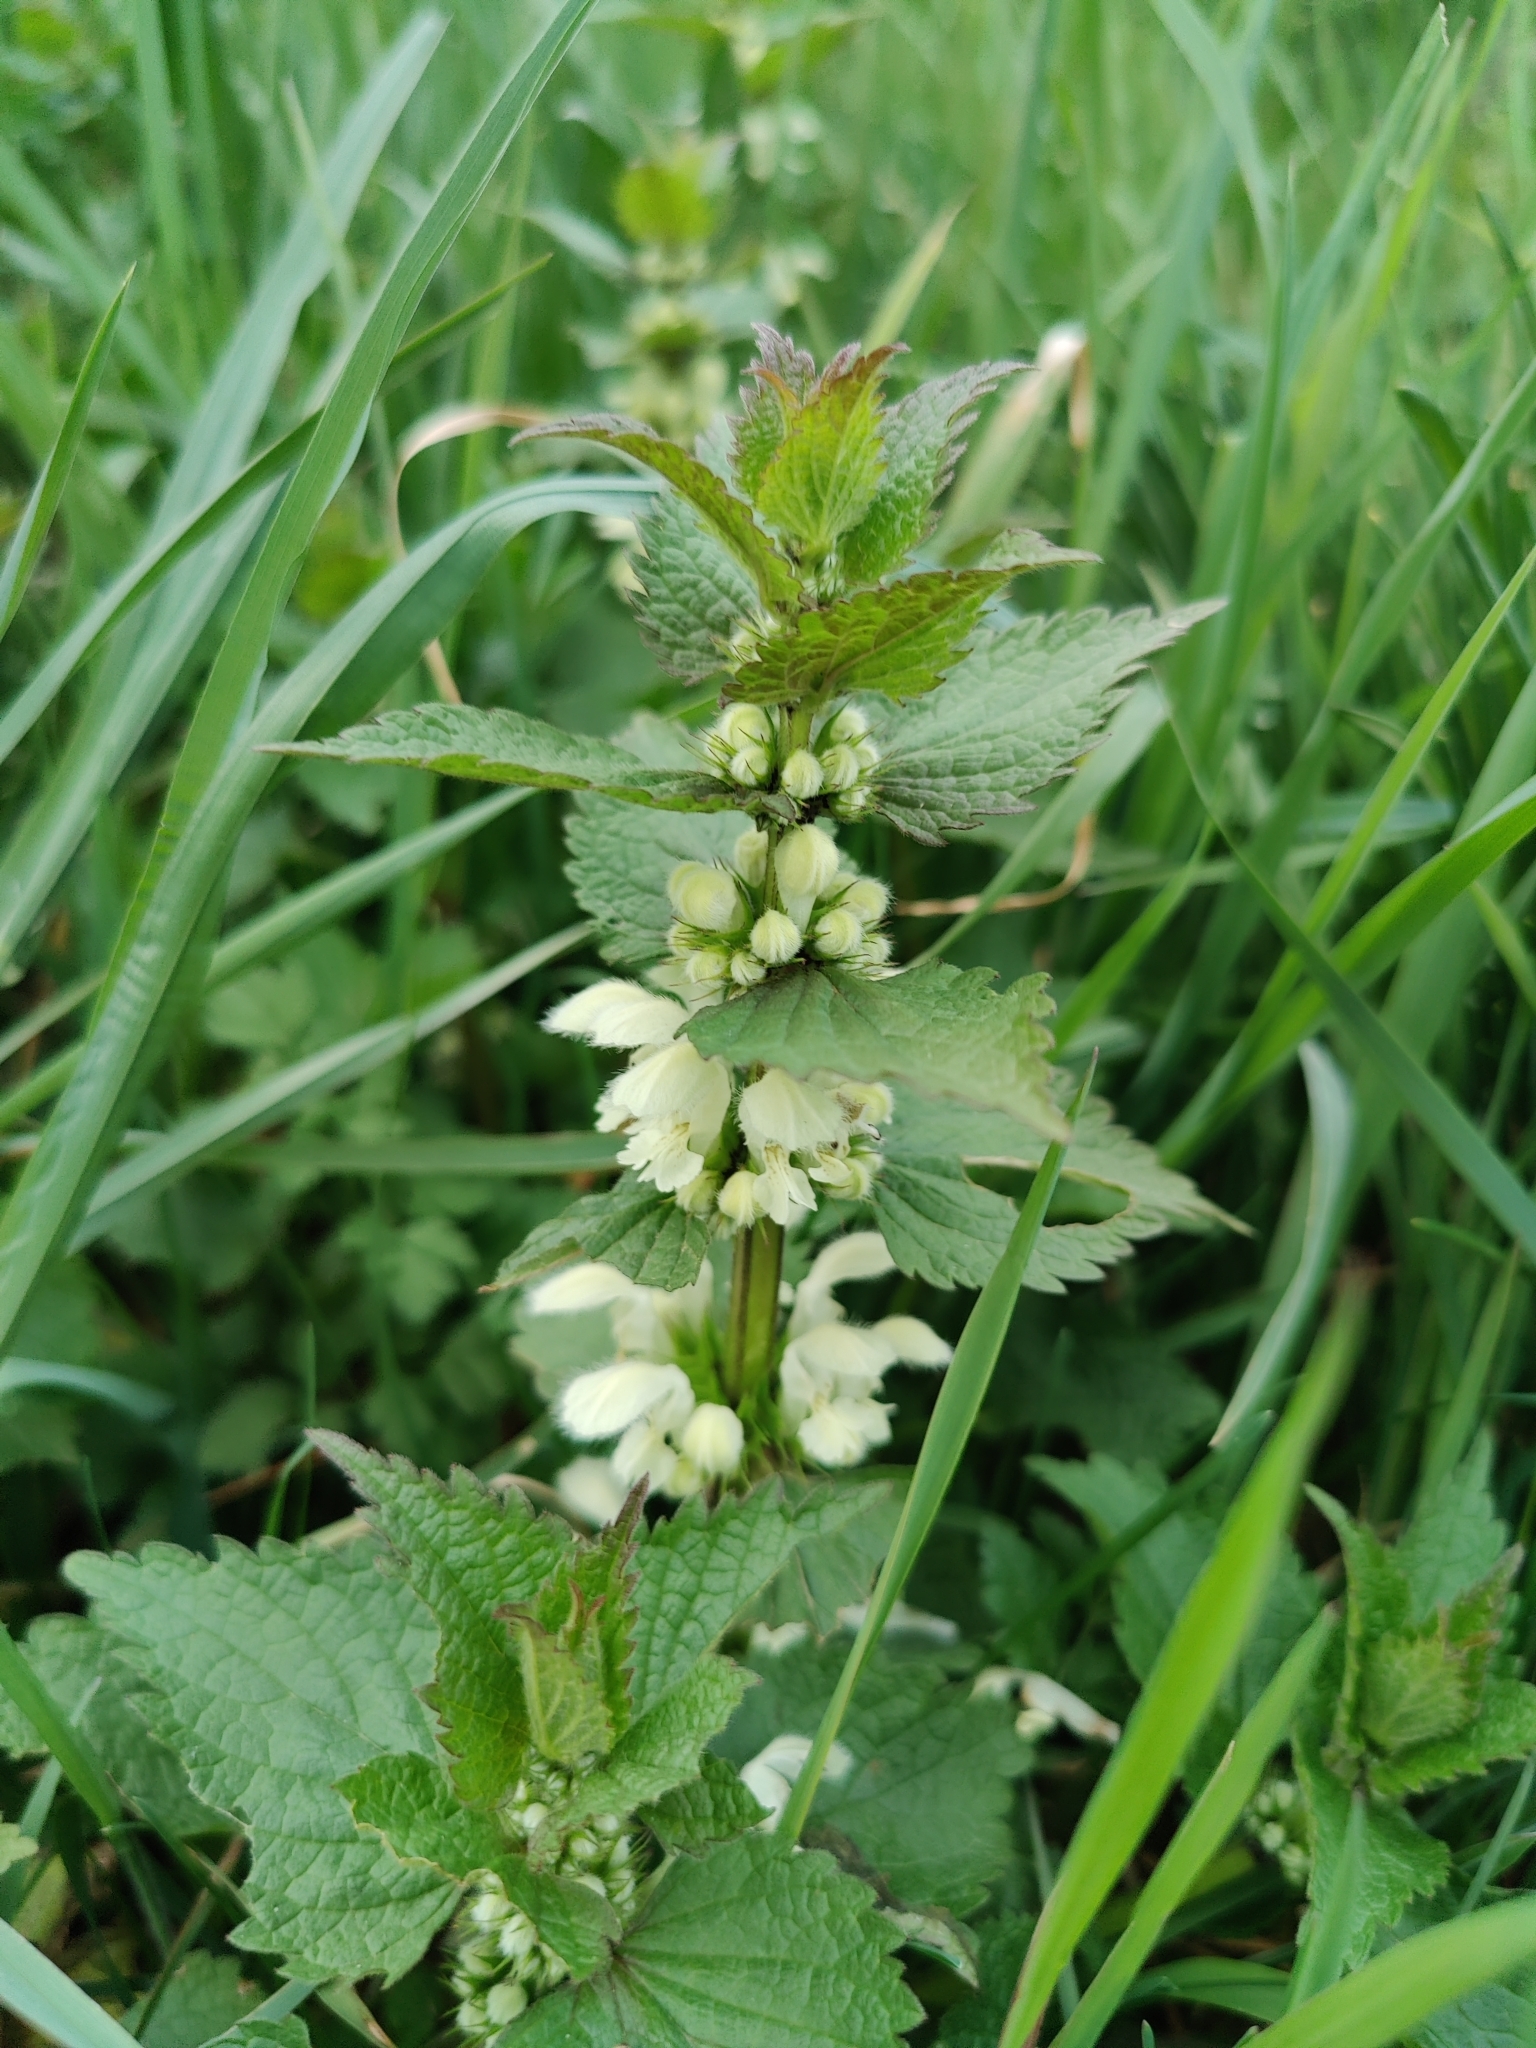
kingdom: Plantae
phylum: Tracheophyta
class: Magnoliopsida
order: Lamiales
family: Lamiaceae
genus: Lamium
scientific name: Lamium album
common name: White dead-nettle
